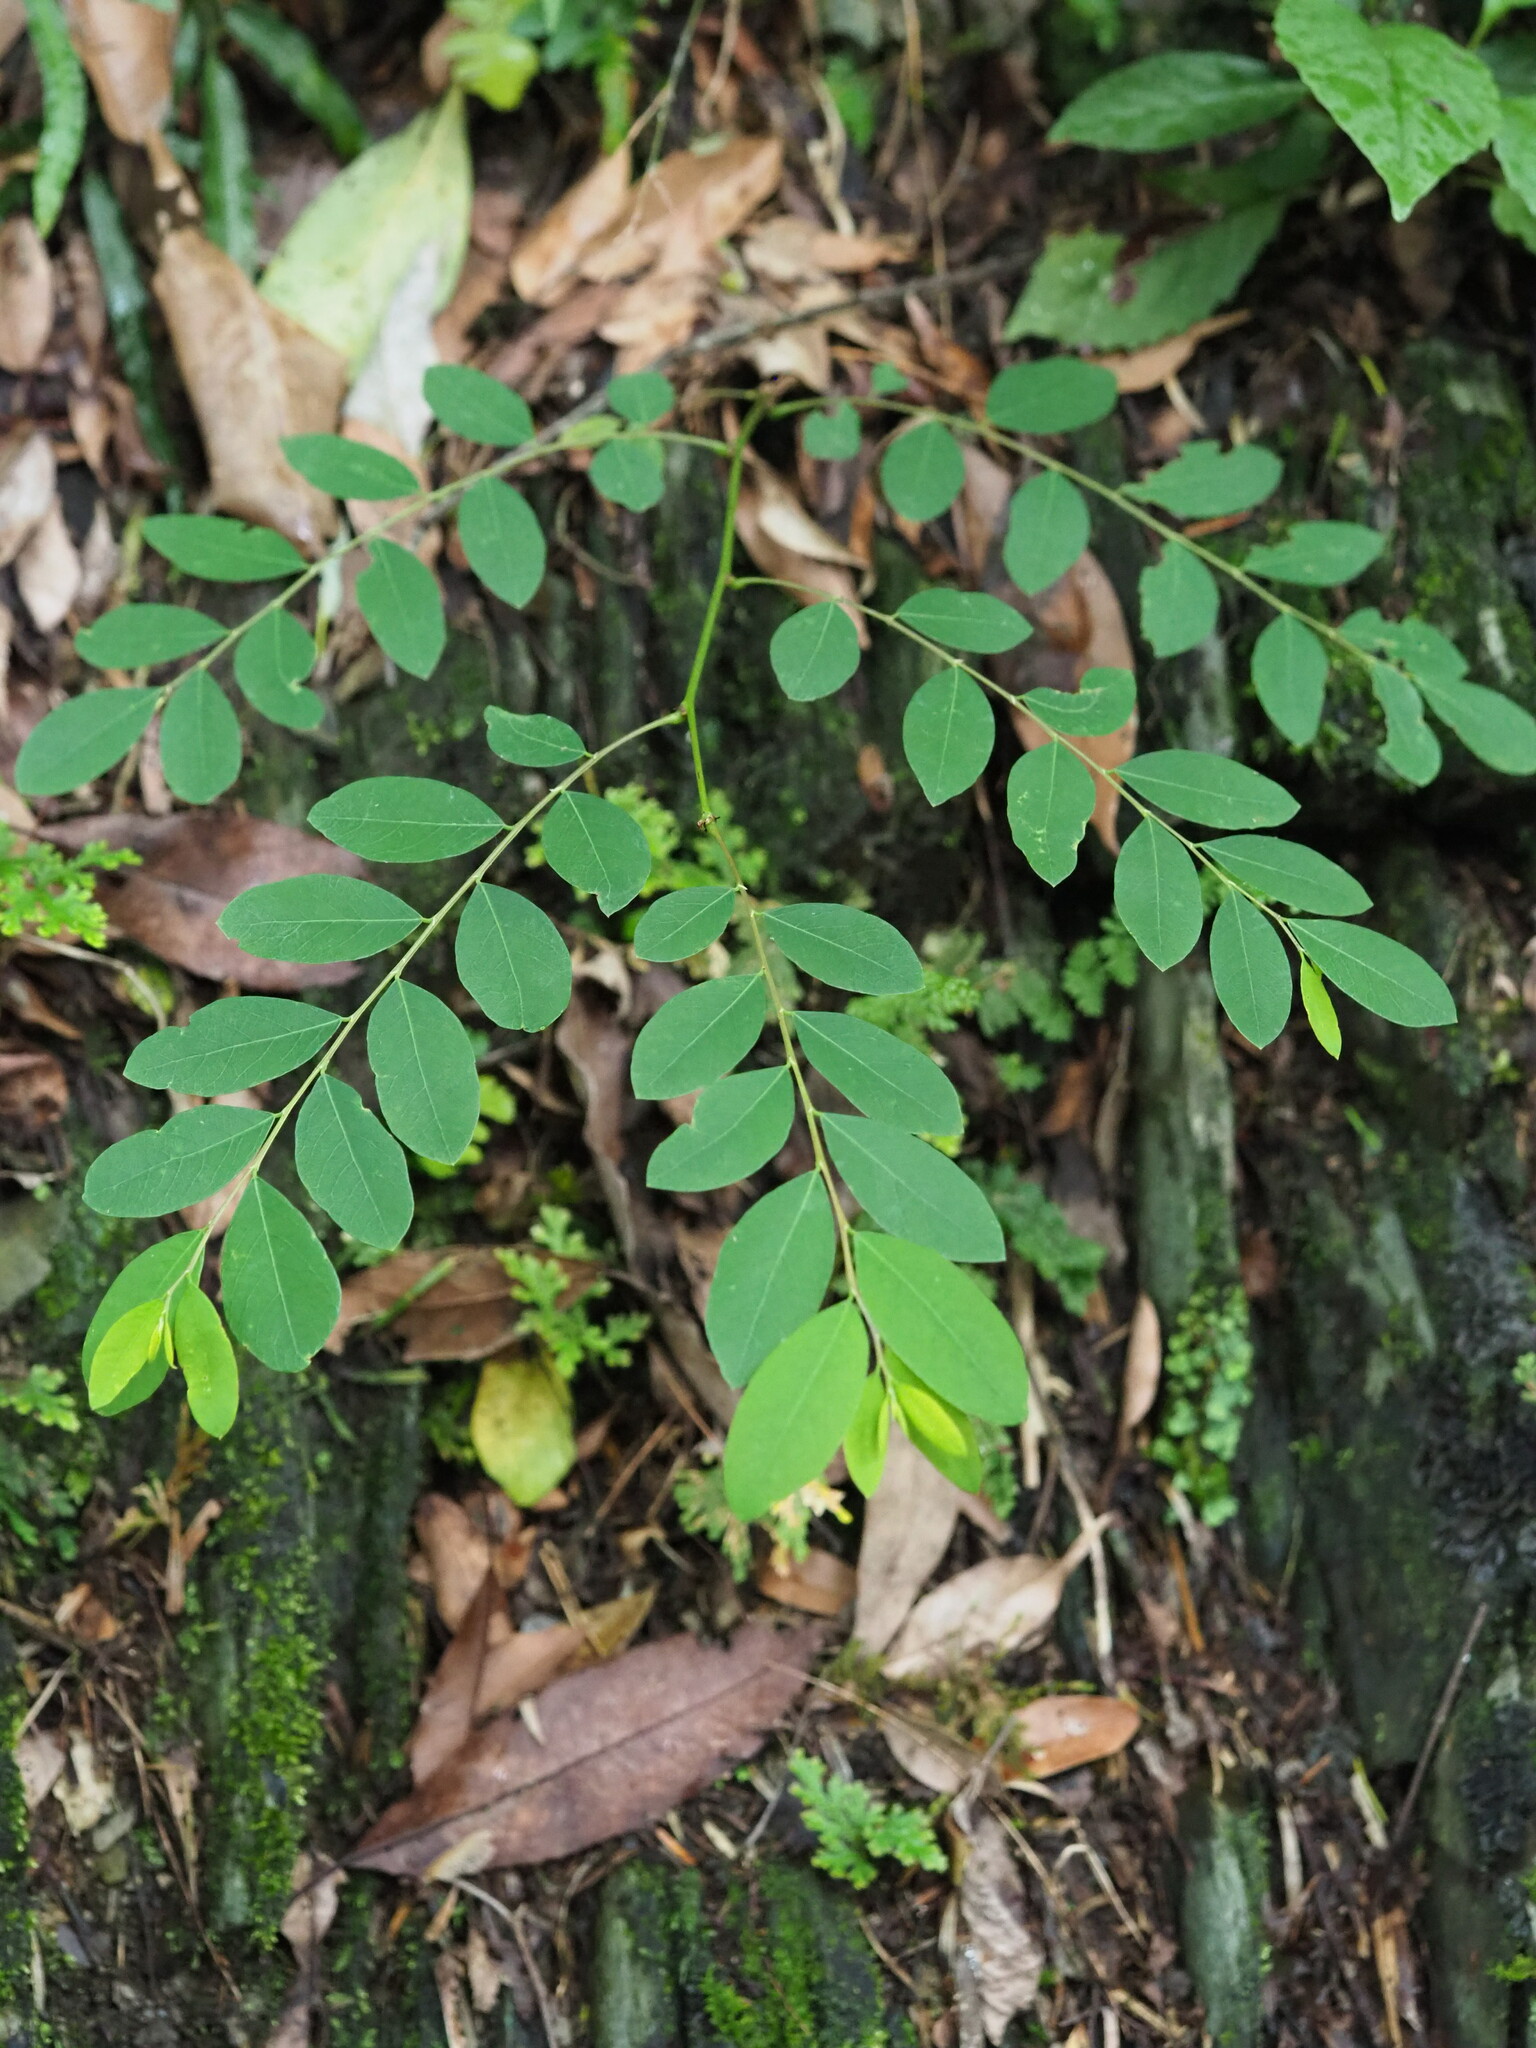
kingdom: Plantae
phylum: Tracheophyta
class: Magnoliopsida
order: Malpighiales
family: Phyllanthaceae
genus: Breynia
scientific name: Breynia vitis-idaea
